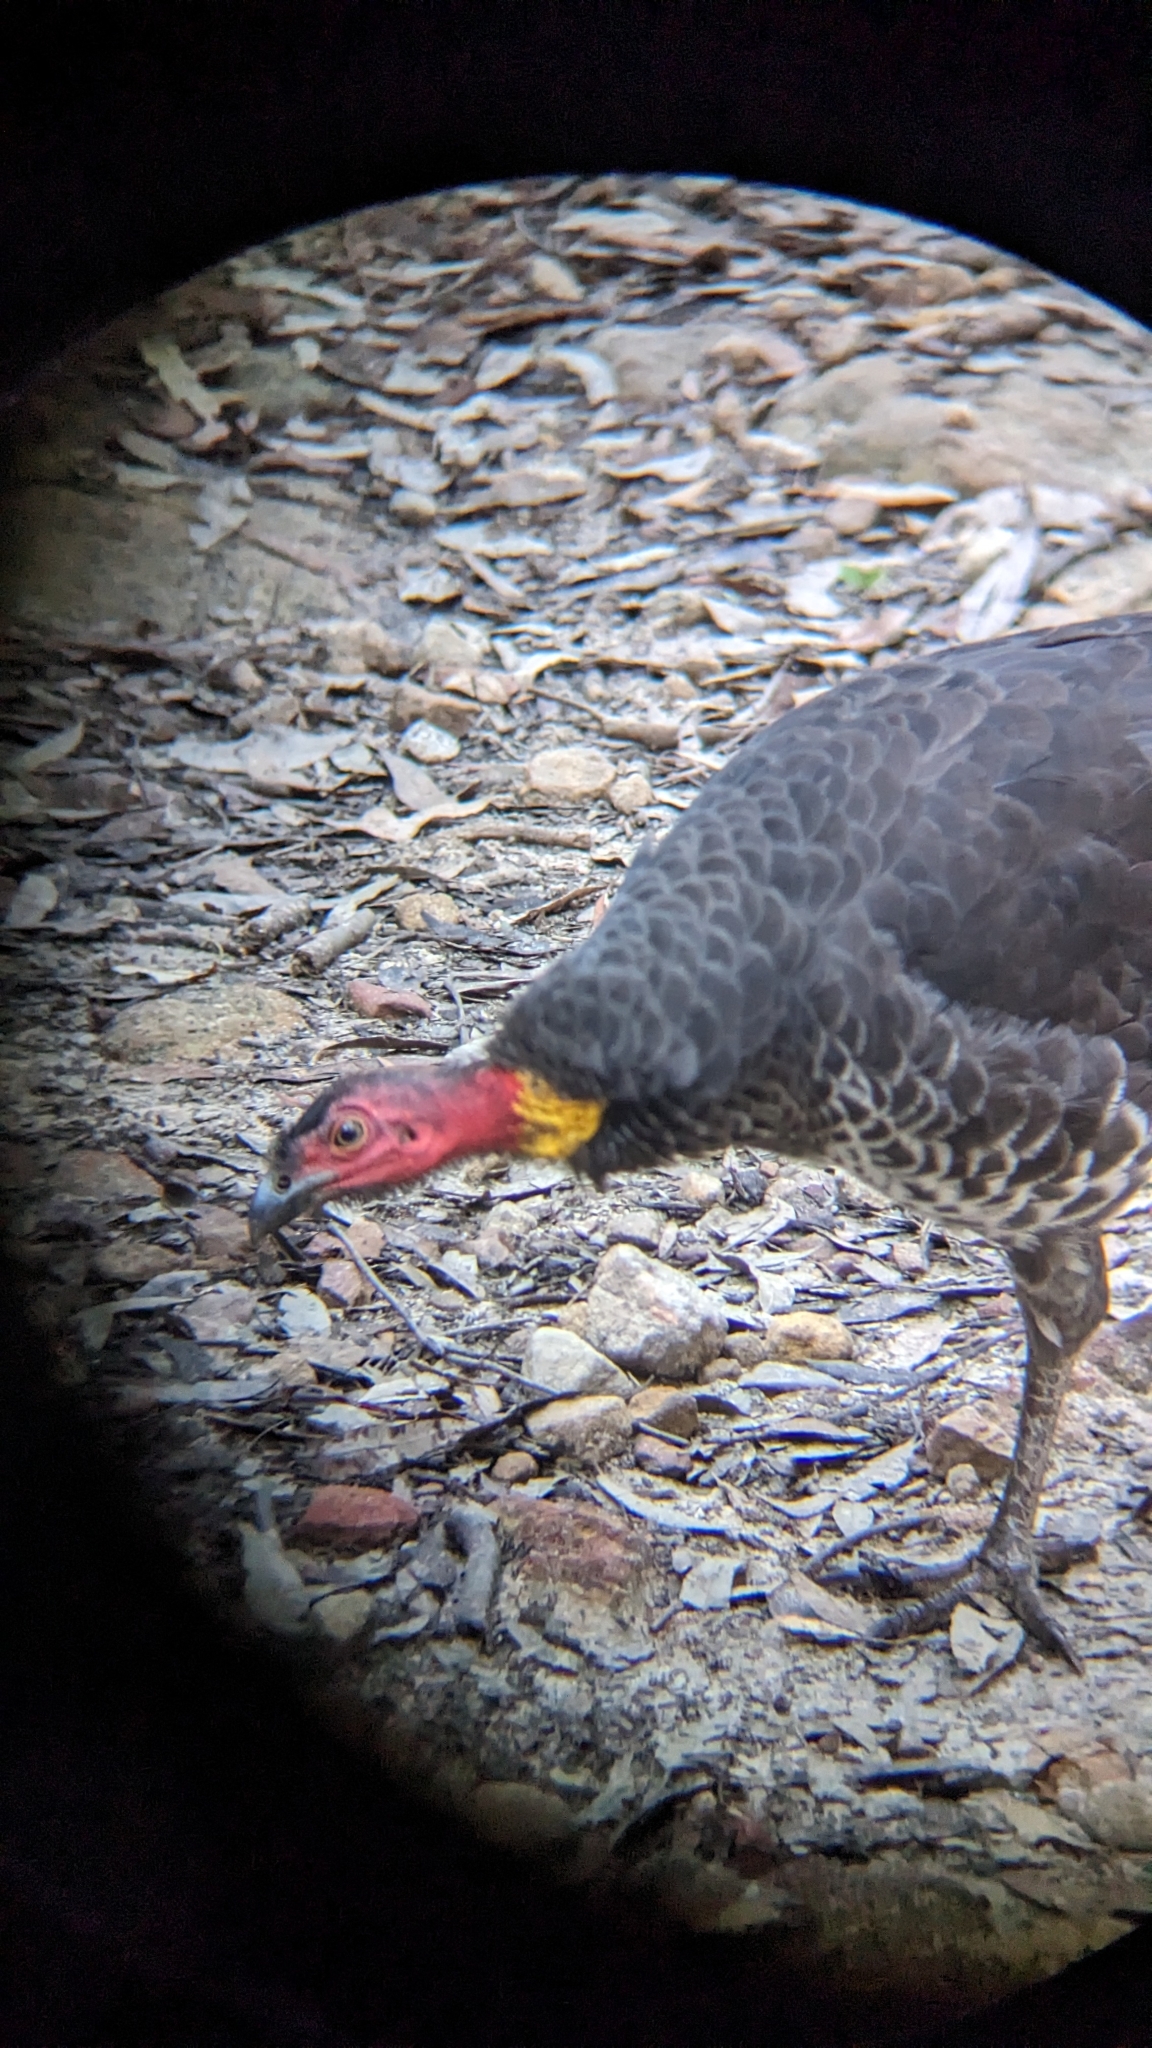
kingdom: Animalia
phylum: Chordata
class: Aves
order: Galliformes
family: Megapodiidae
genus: Alectura
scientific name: Alectura lathami
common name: Australian brushturkey
